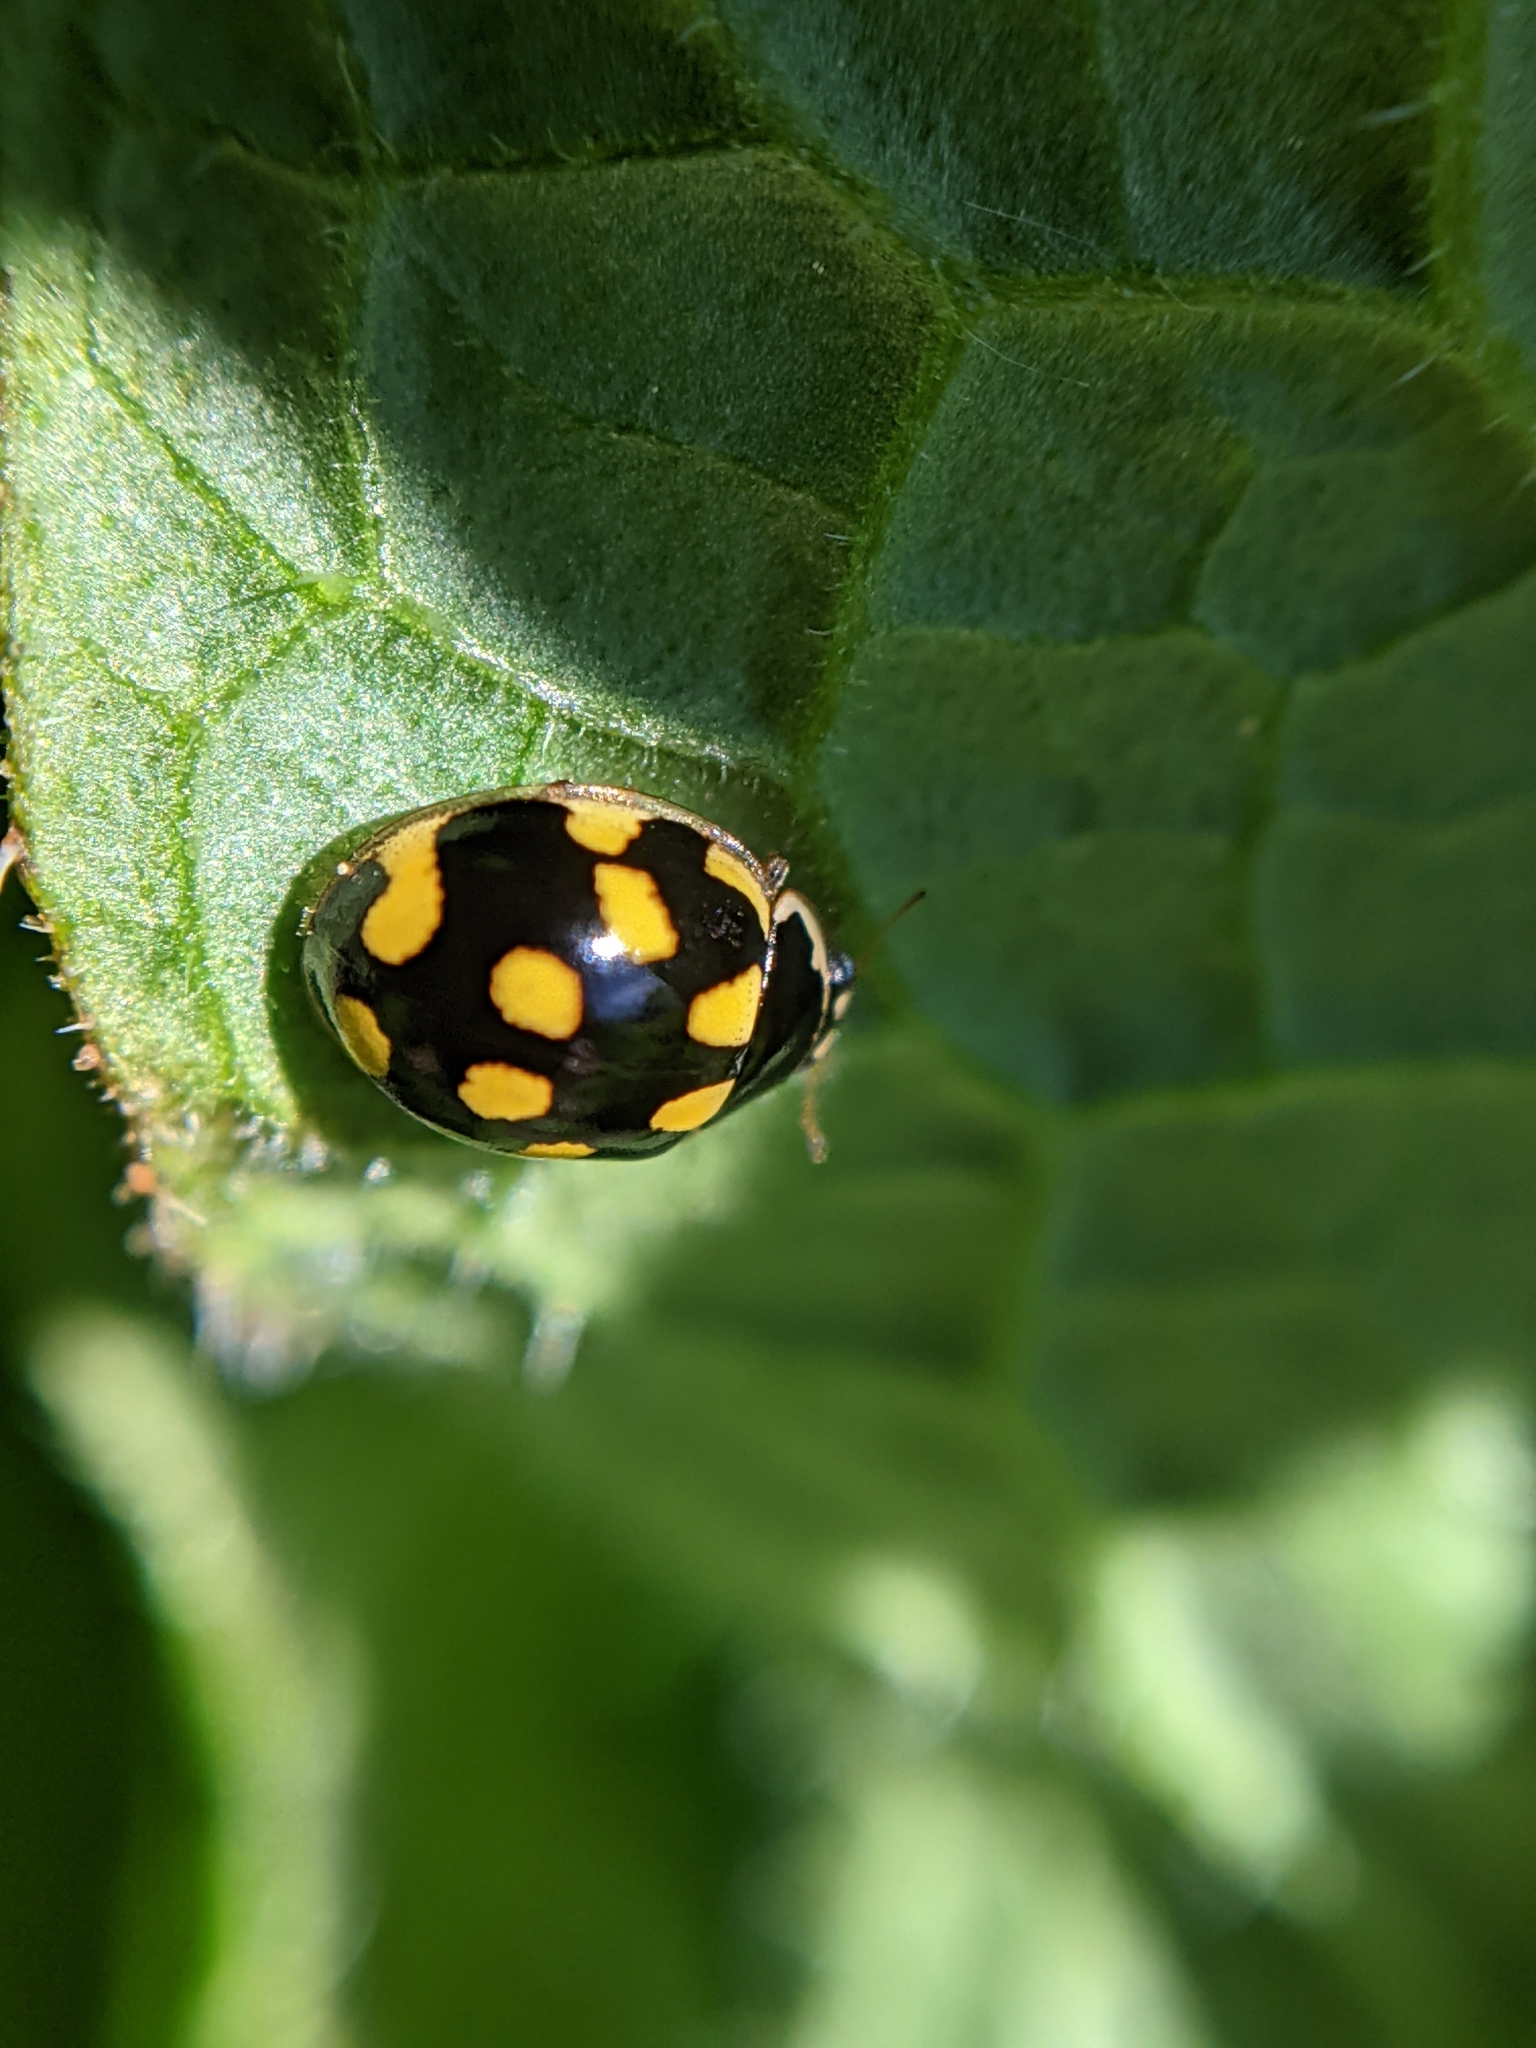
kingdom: Animalia
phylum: Arthropoda
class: Insecta
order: Coleoptera
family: Coccinellidae
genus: Propylaea
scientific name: Propylaea quatuordecimpunctata
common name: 14-spotted ladybird beetle
